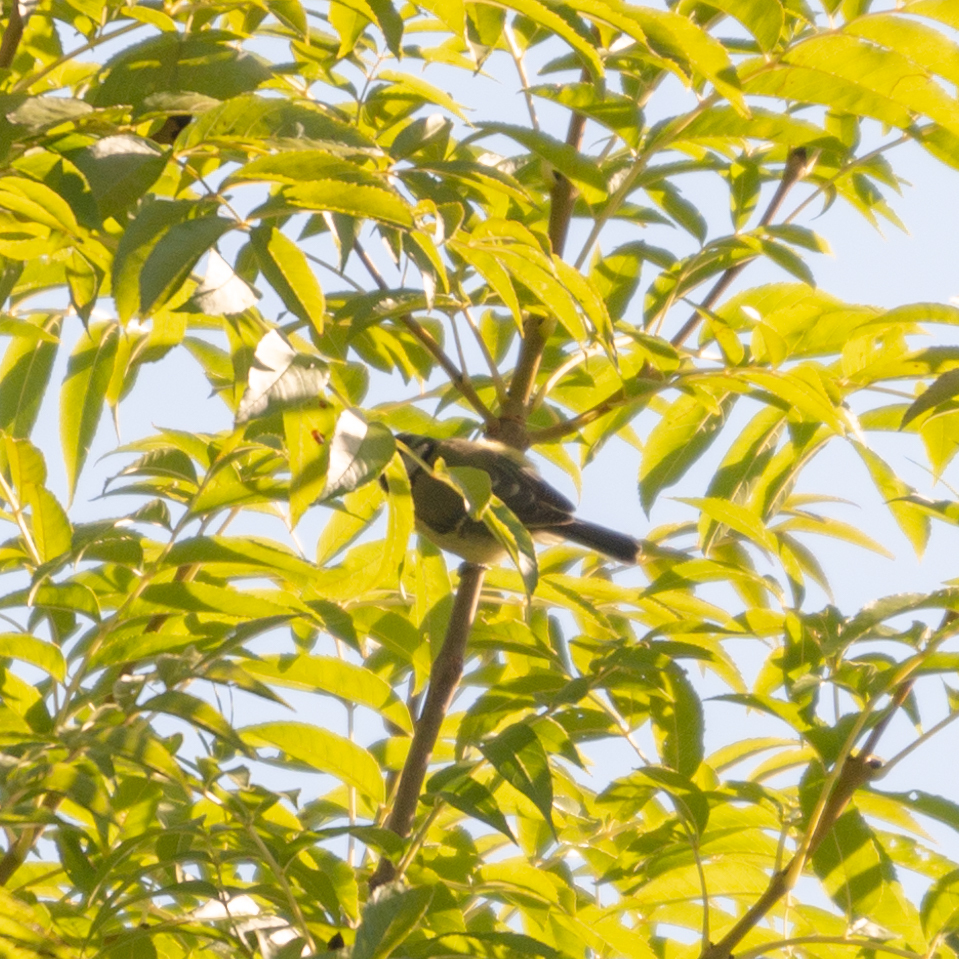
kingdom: Animalia
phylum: Chordata
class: Aves
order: Passeriformes
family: Paridae
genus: Cyanistes
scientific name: Cyanistes caeruleus
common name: Eurasian blue tit
